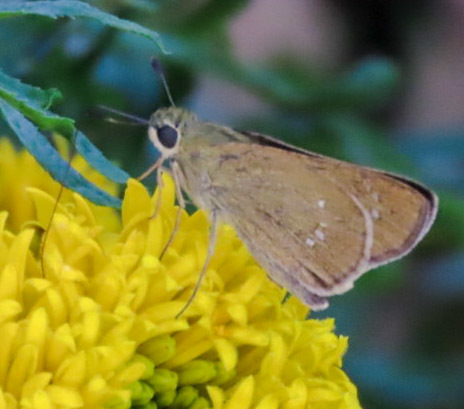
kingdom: Animalia
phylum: Arthropoda
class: Insecta
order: Lepidoptera
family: Hesperiidae
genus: Borbo
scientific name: Borbo cinnara
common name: Formosan swift
